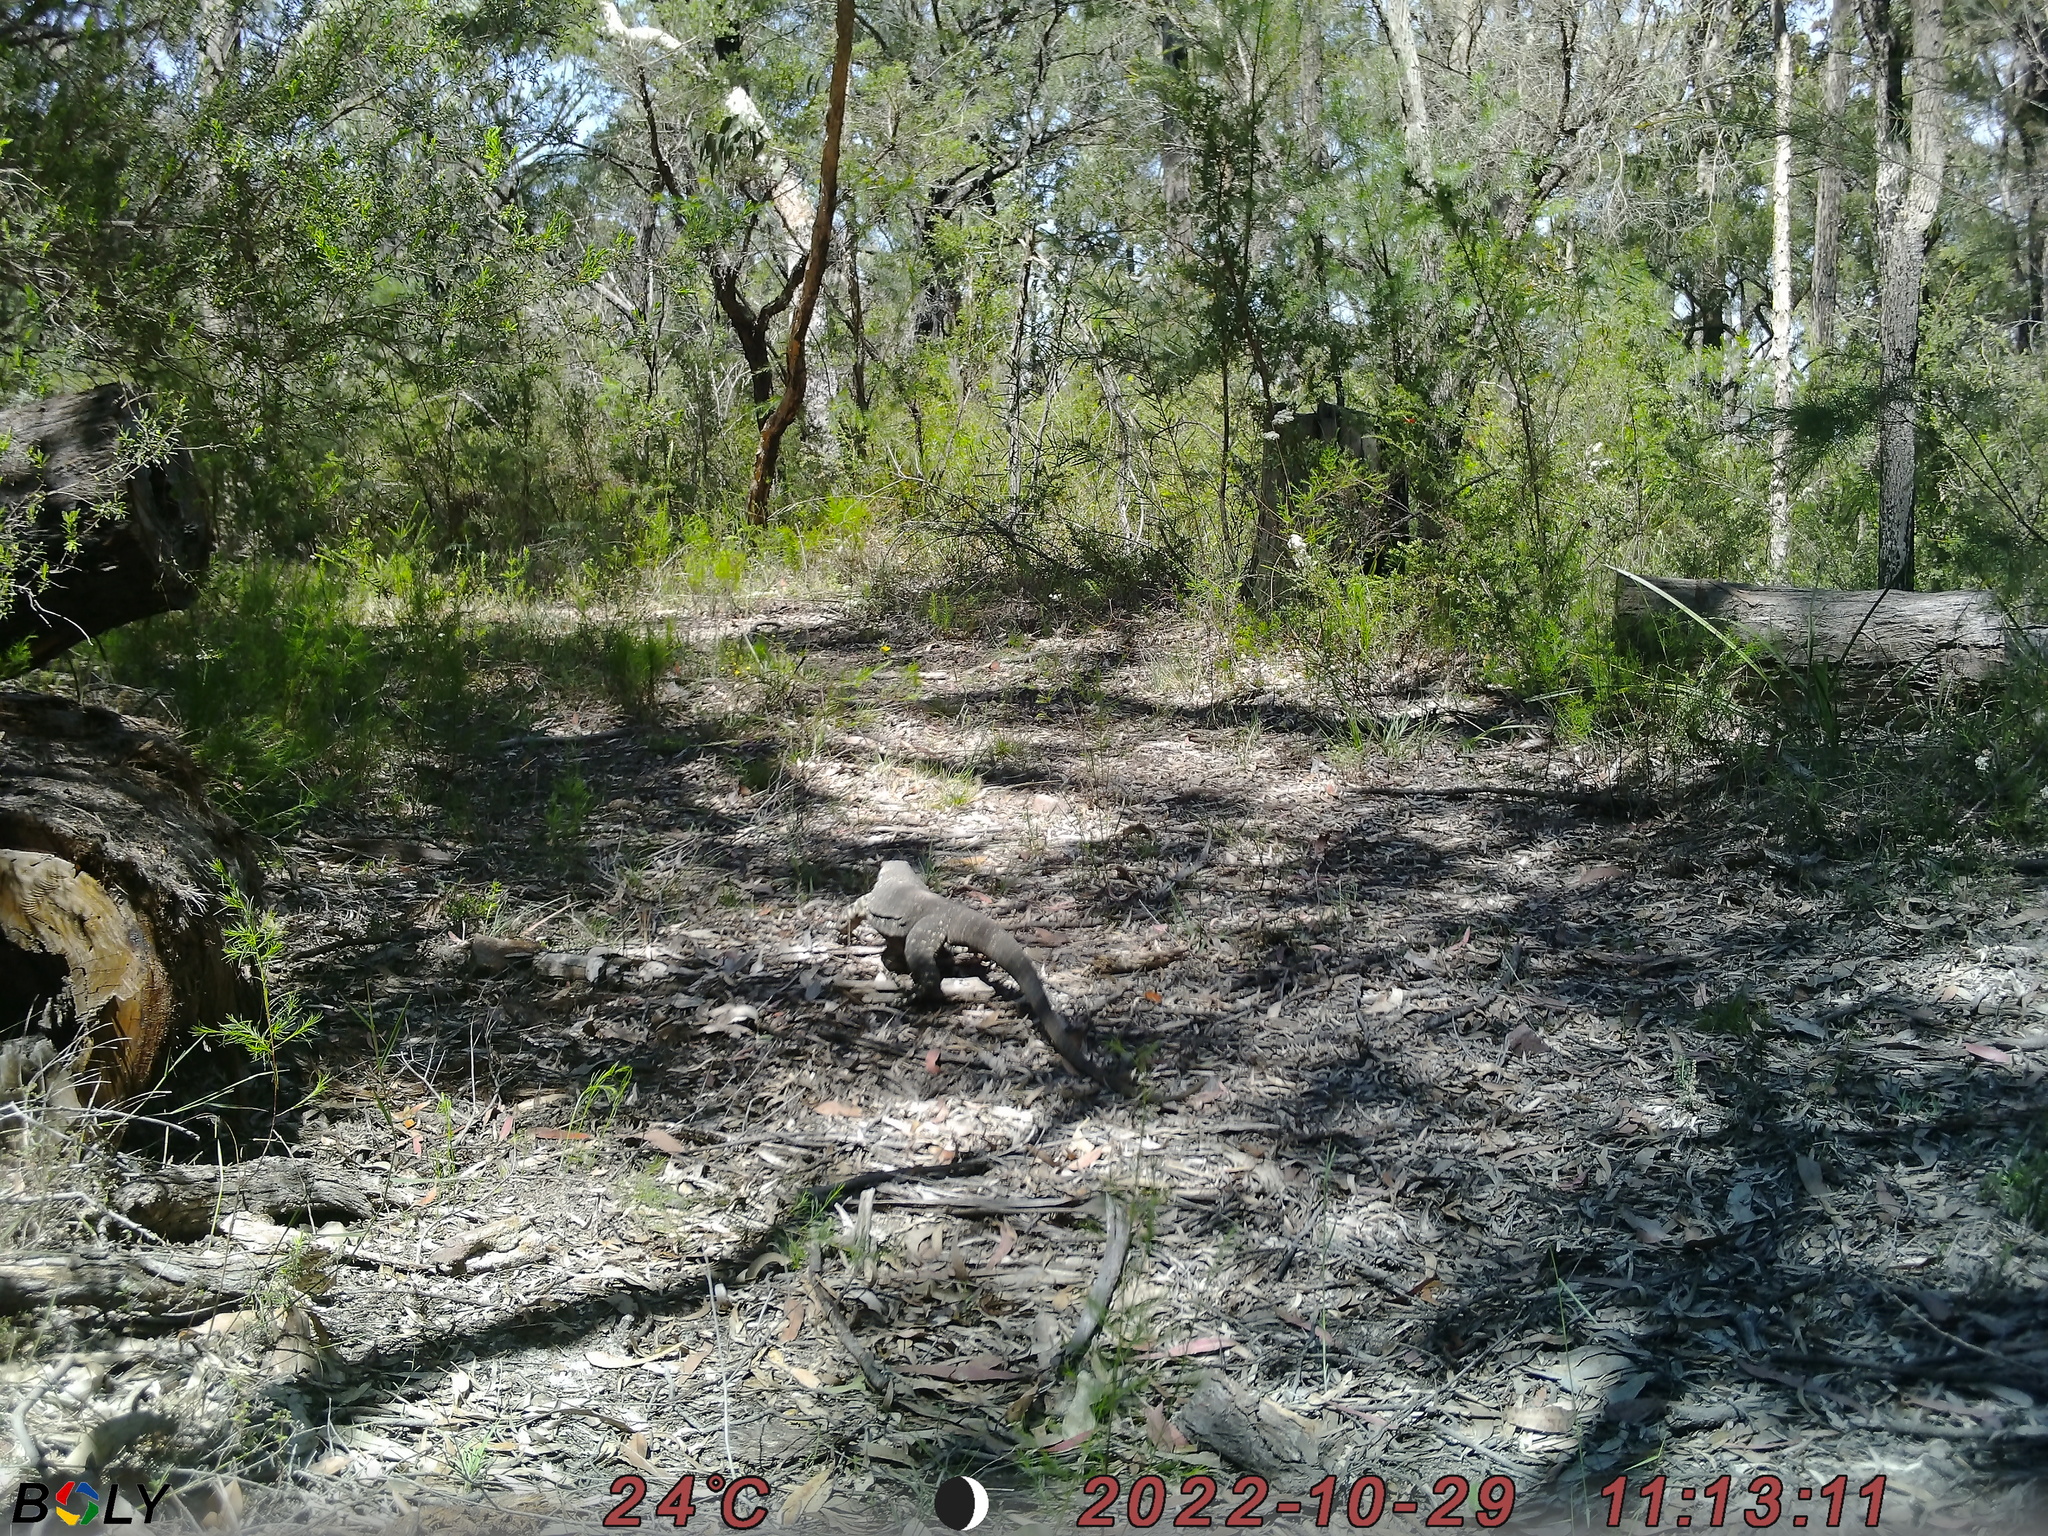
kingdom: Animalia
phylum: Chordata
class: Squamata
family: Varanidae
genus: Varanus
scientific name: Varanus varius
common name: Lace monitor
